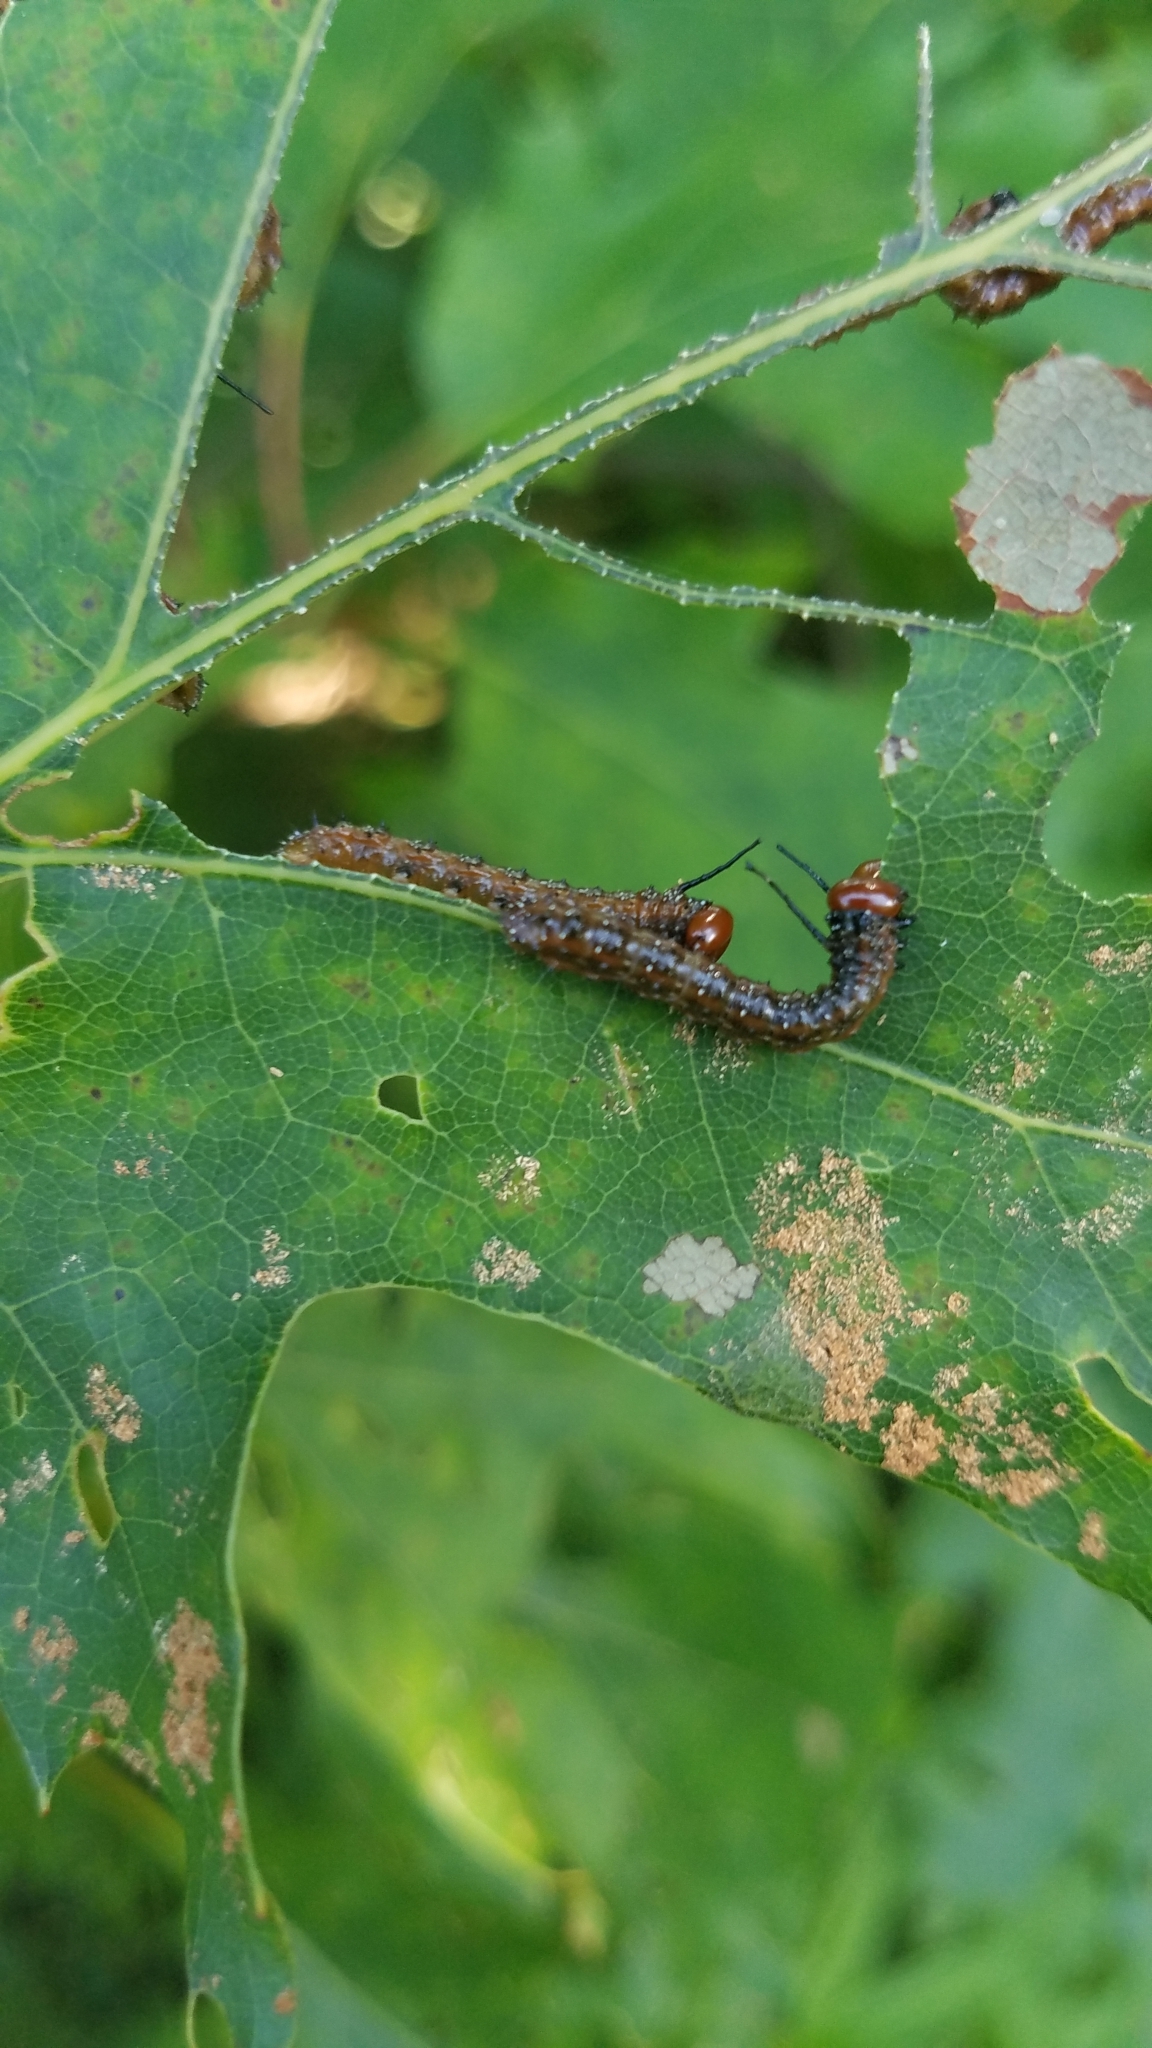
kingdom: Animalia
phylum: Arthropoda
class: Insecta
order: Lepidoptera
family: Saturniidae
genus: Anisota
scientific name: Anisota virginiensis
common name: Pink striped oakworm moth
